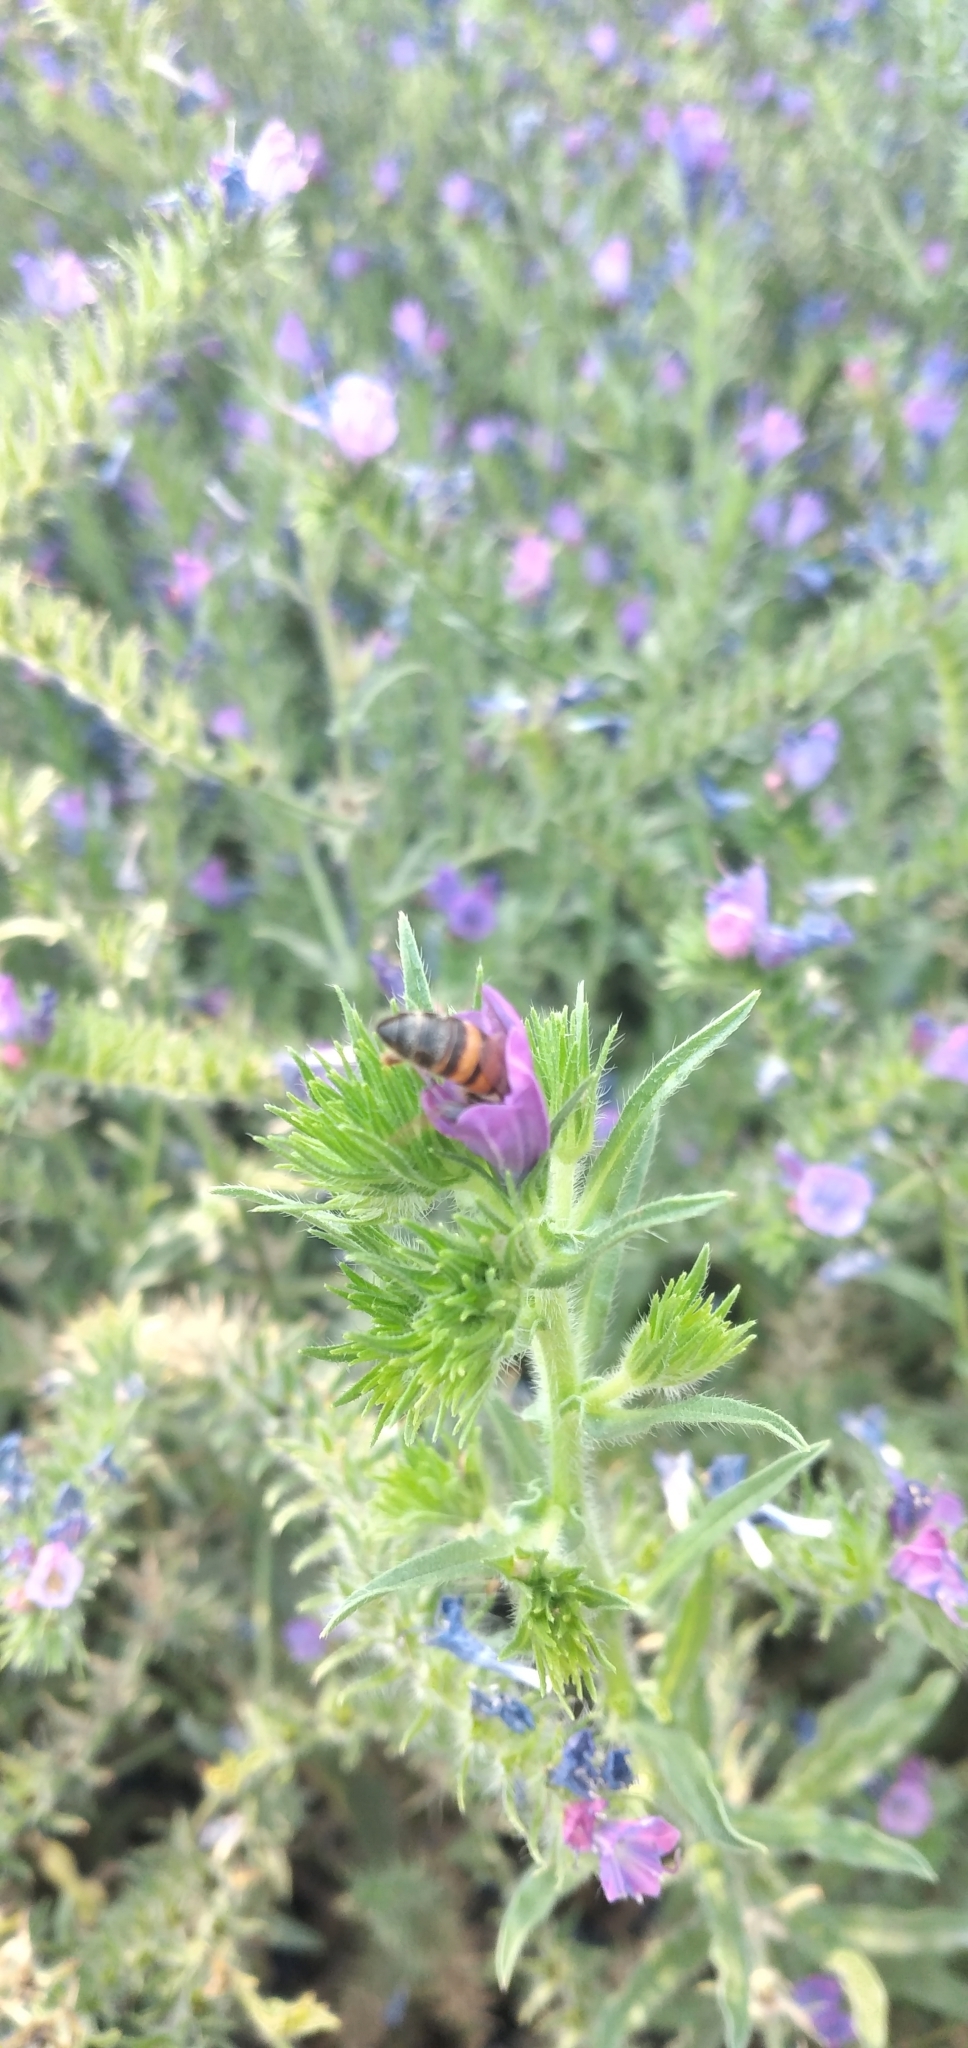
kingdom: Plantae
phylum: Tracheophyta
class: Magnoliopsida
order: Boraginales
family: Boraginaceae
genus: Echium
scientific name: Echium plantagineum
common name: Purple viper's-bugloss
